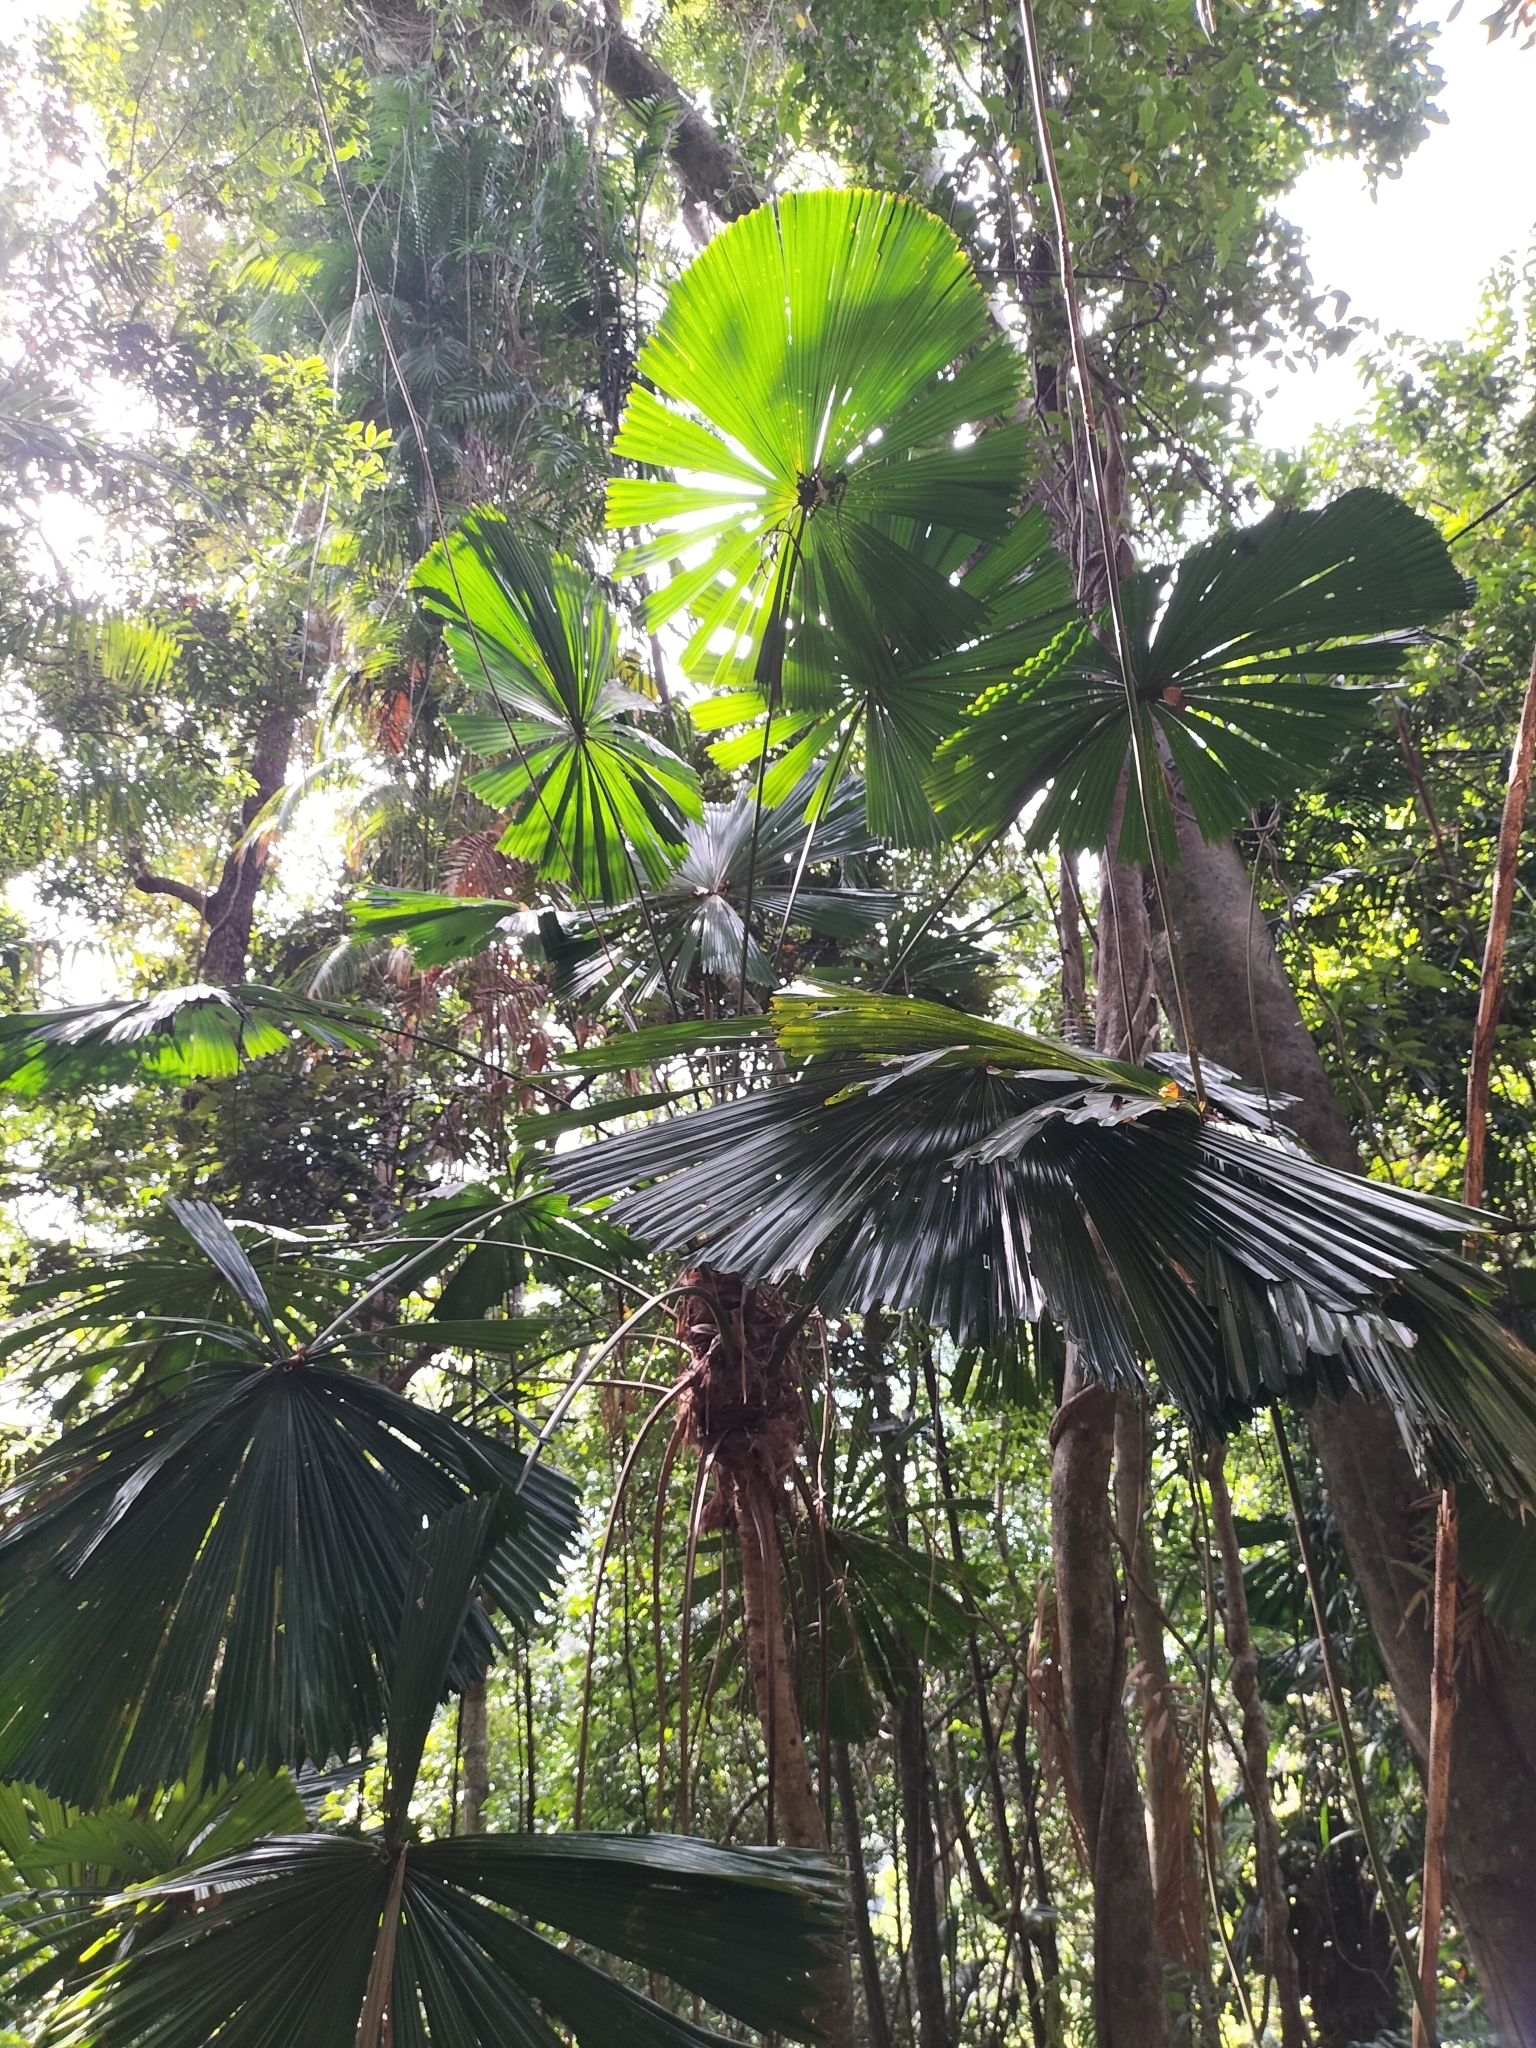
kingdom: Plantae
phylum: Tracheophyta
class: Liliopsida
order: Arecales
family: Arecaceae
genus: Licuala
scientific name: Licuala ramsayi
